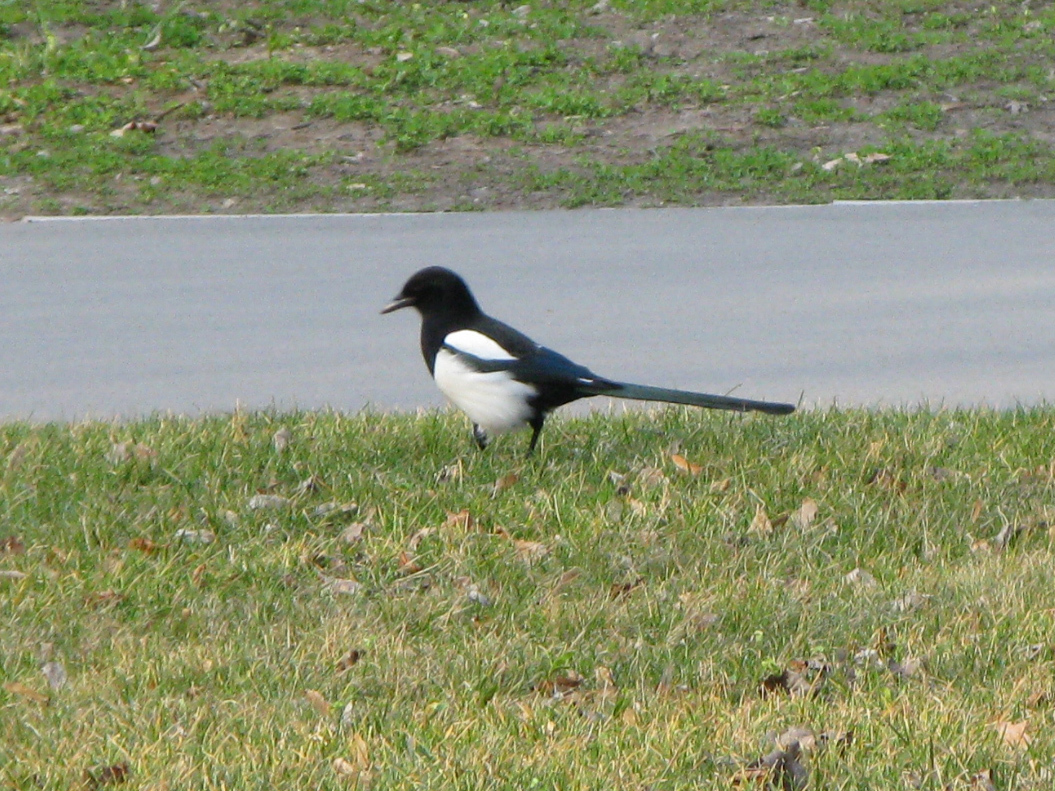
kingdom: Animalia
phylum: Chordata
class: Aves
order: Passeriformes
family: Corvidae
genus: Pica
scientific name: Pica pica
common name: Eurasian magpie
